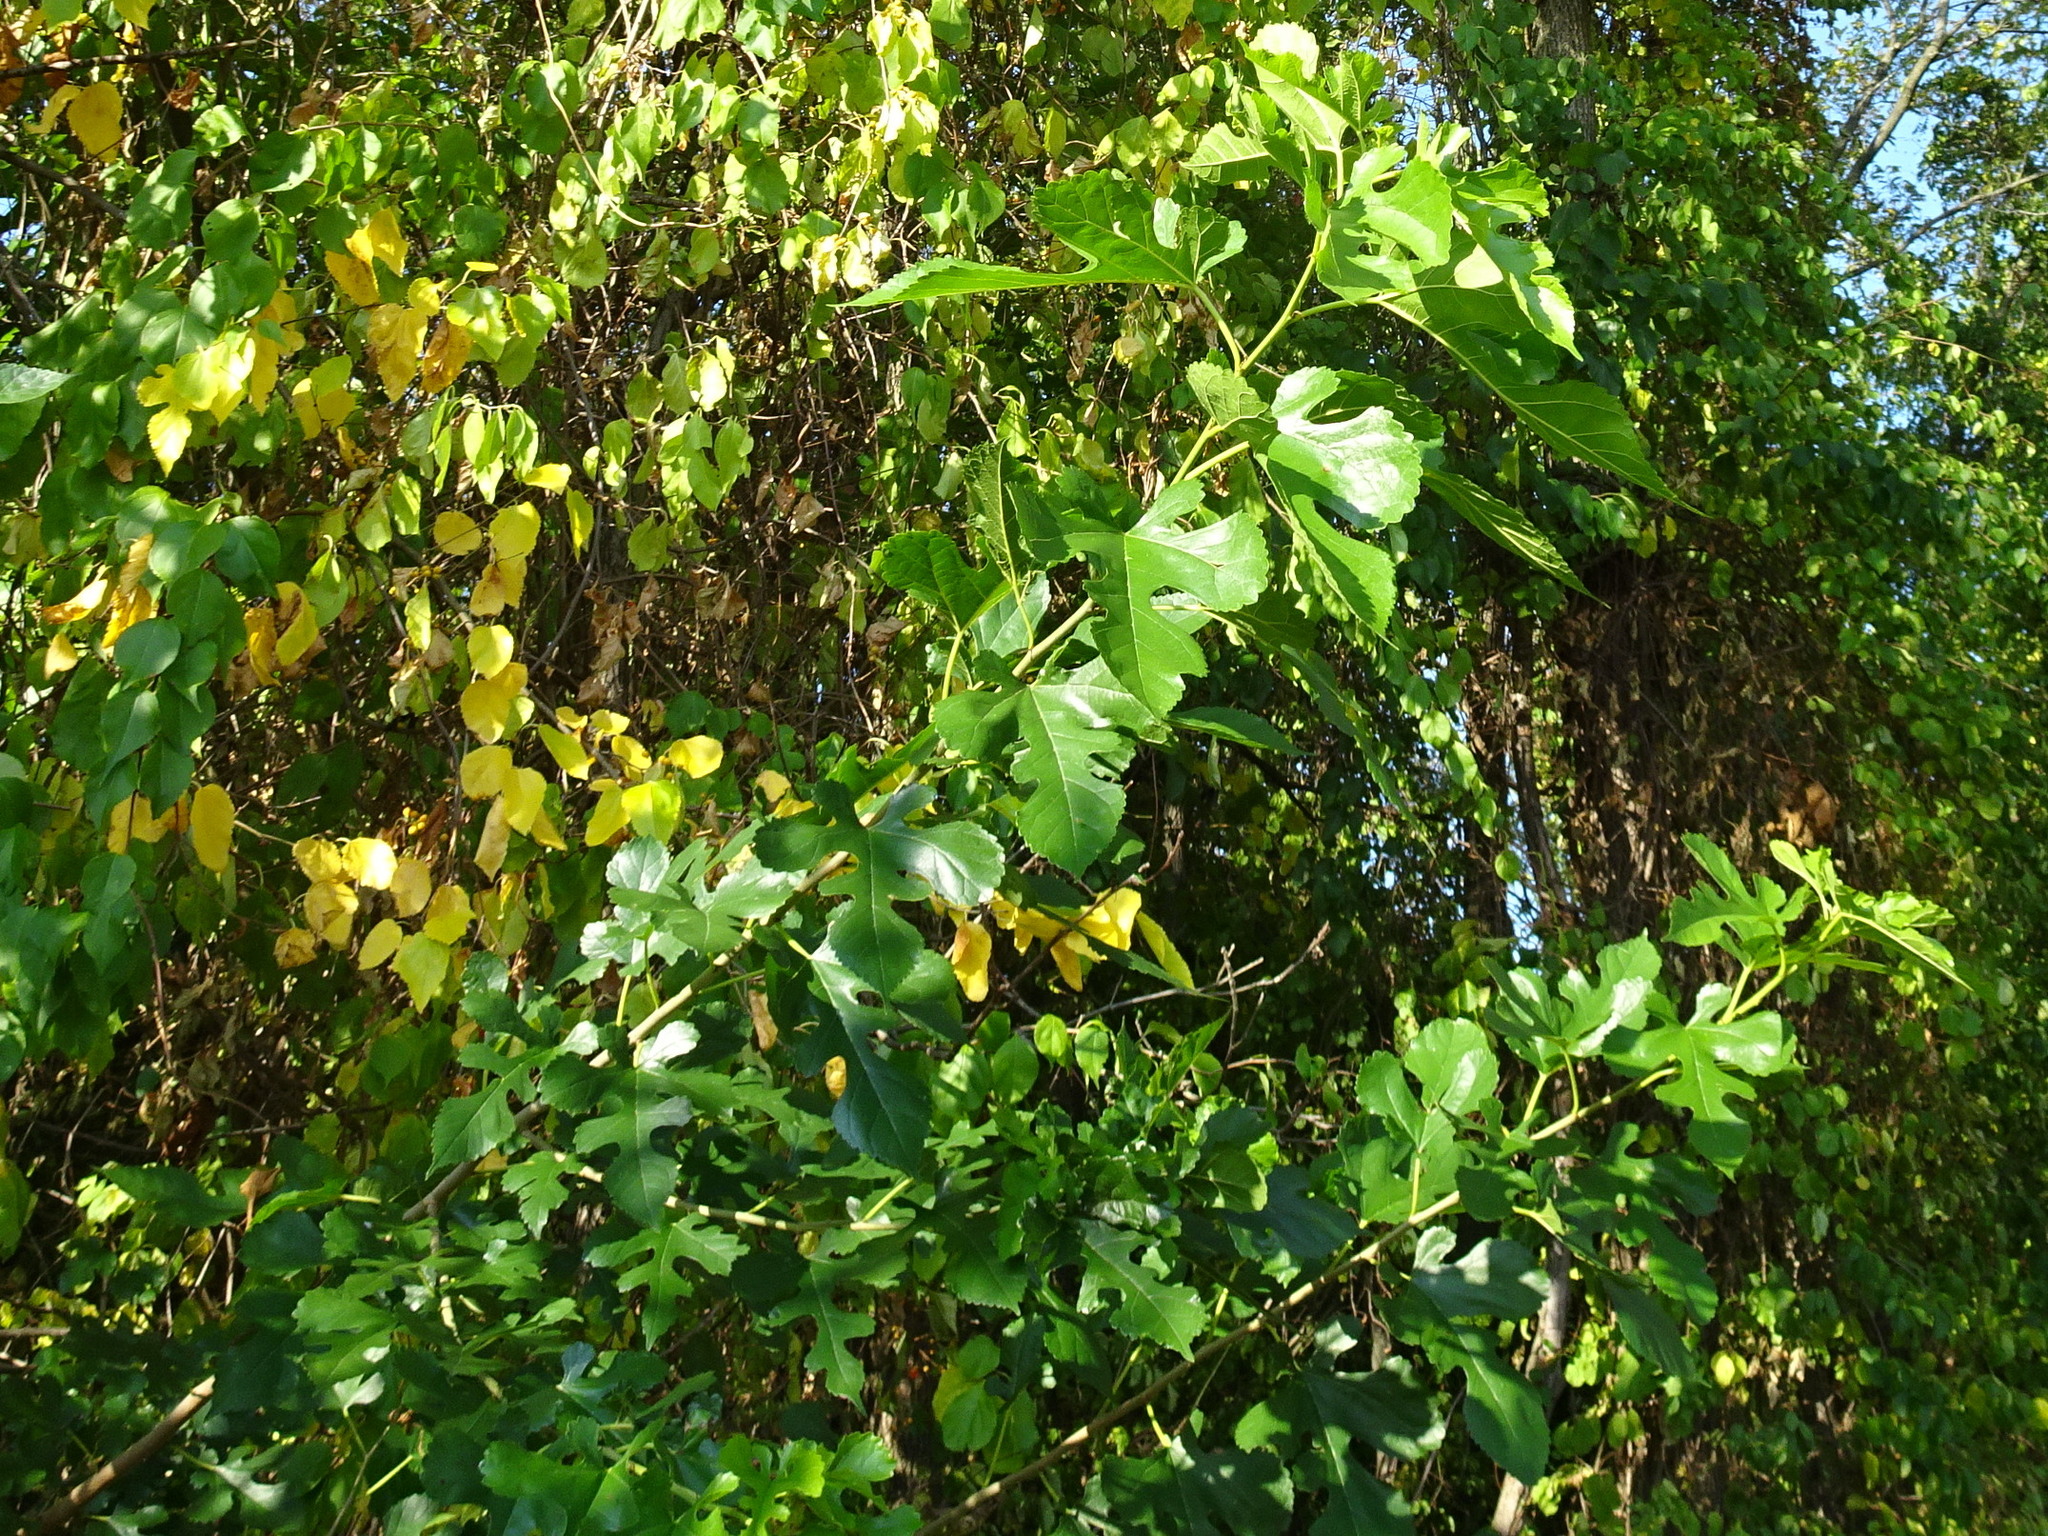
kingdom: Plantae
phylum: Tracheophyta
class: Magnoliopsida
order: Rosales
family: Moraceae
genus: Morus
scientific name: Morus alba
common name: White mulberry
